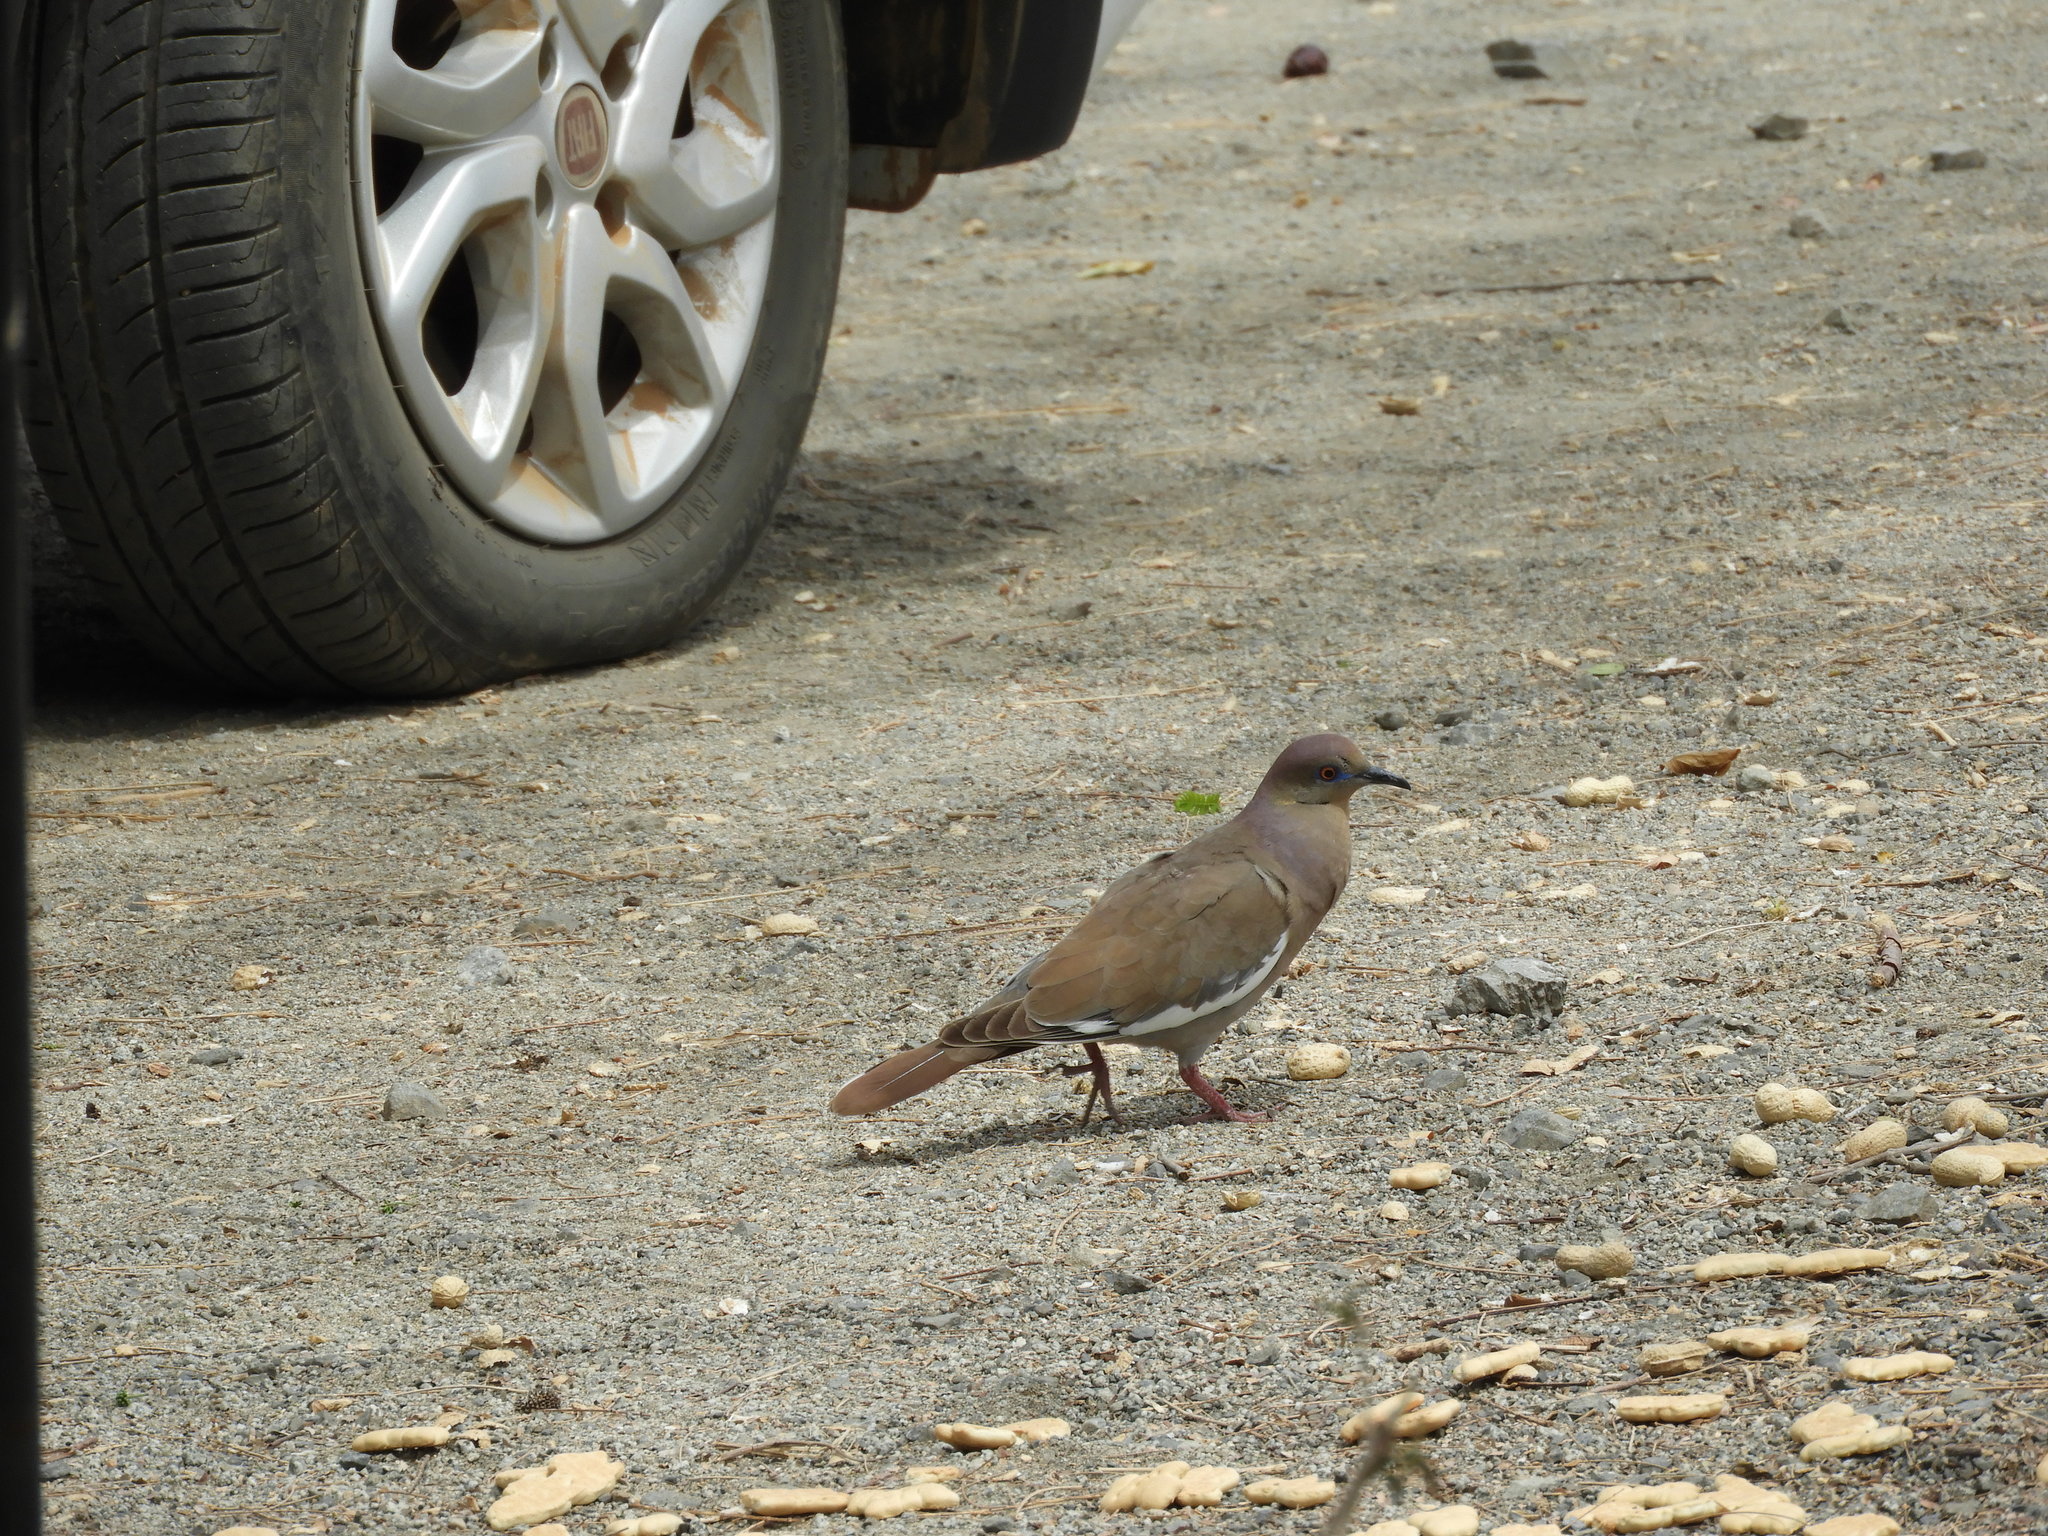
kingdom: Animalia
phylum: Chordata
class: Aves
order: Columbiformes
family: Columbidae
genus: Zenaida
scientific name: Zenaida asiatica
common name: White-winged dove
